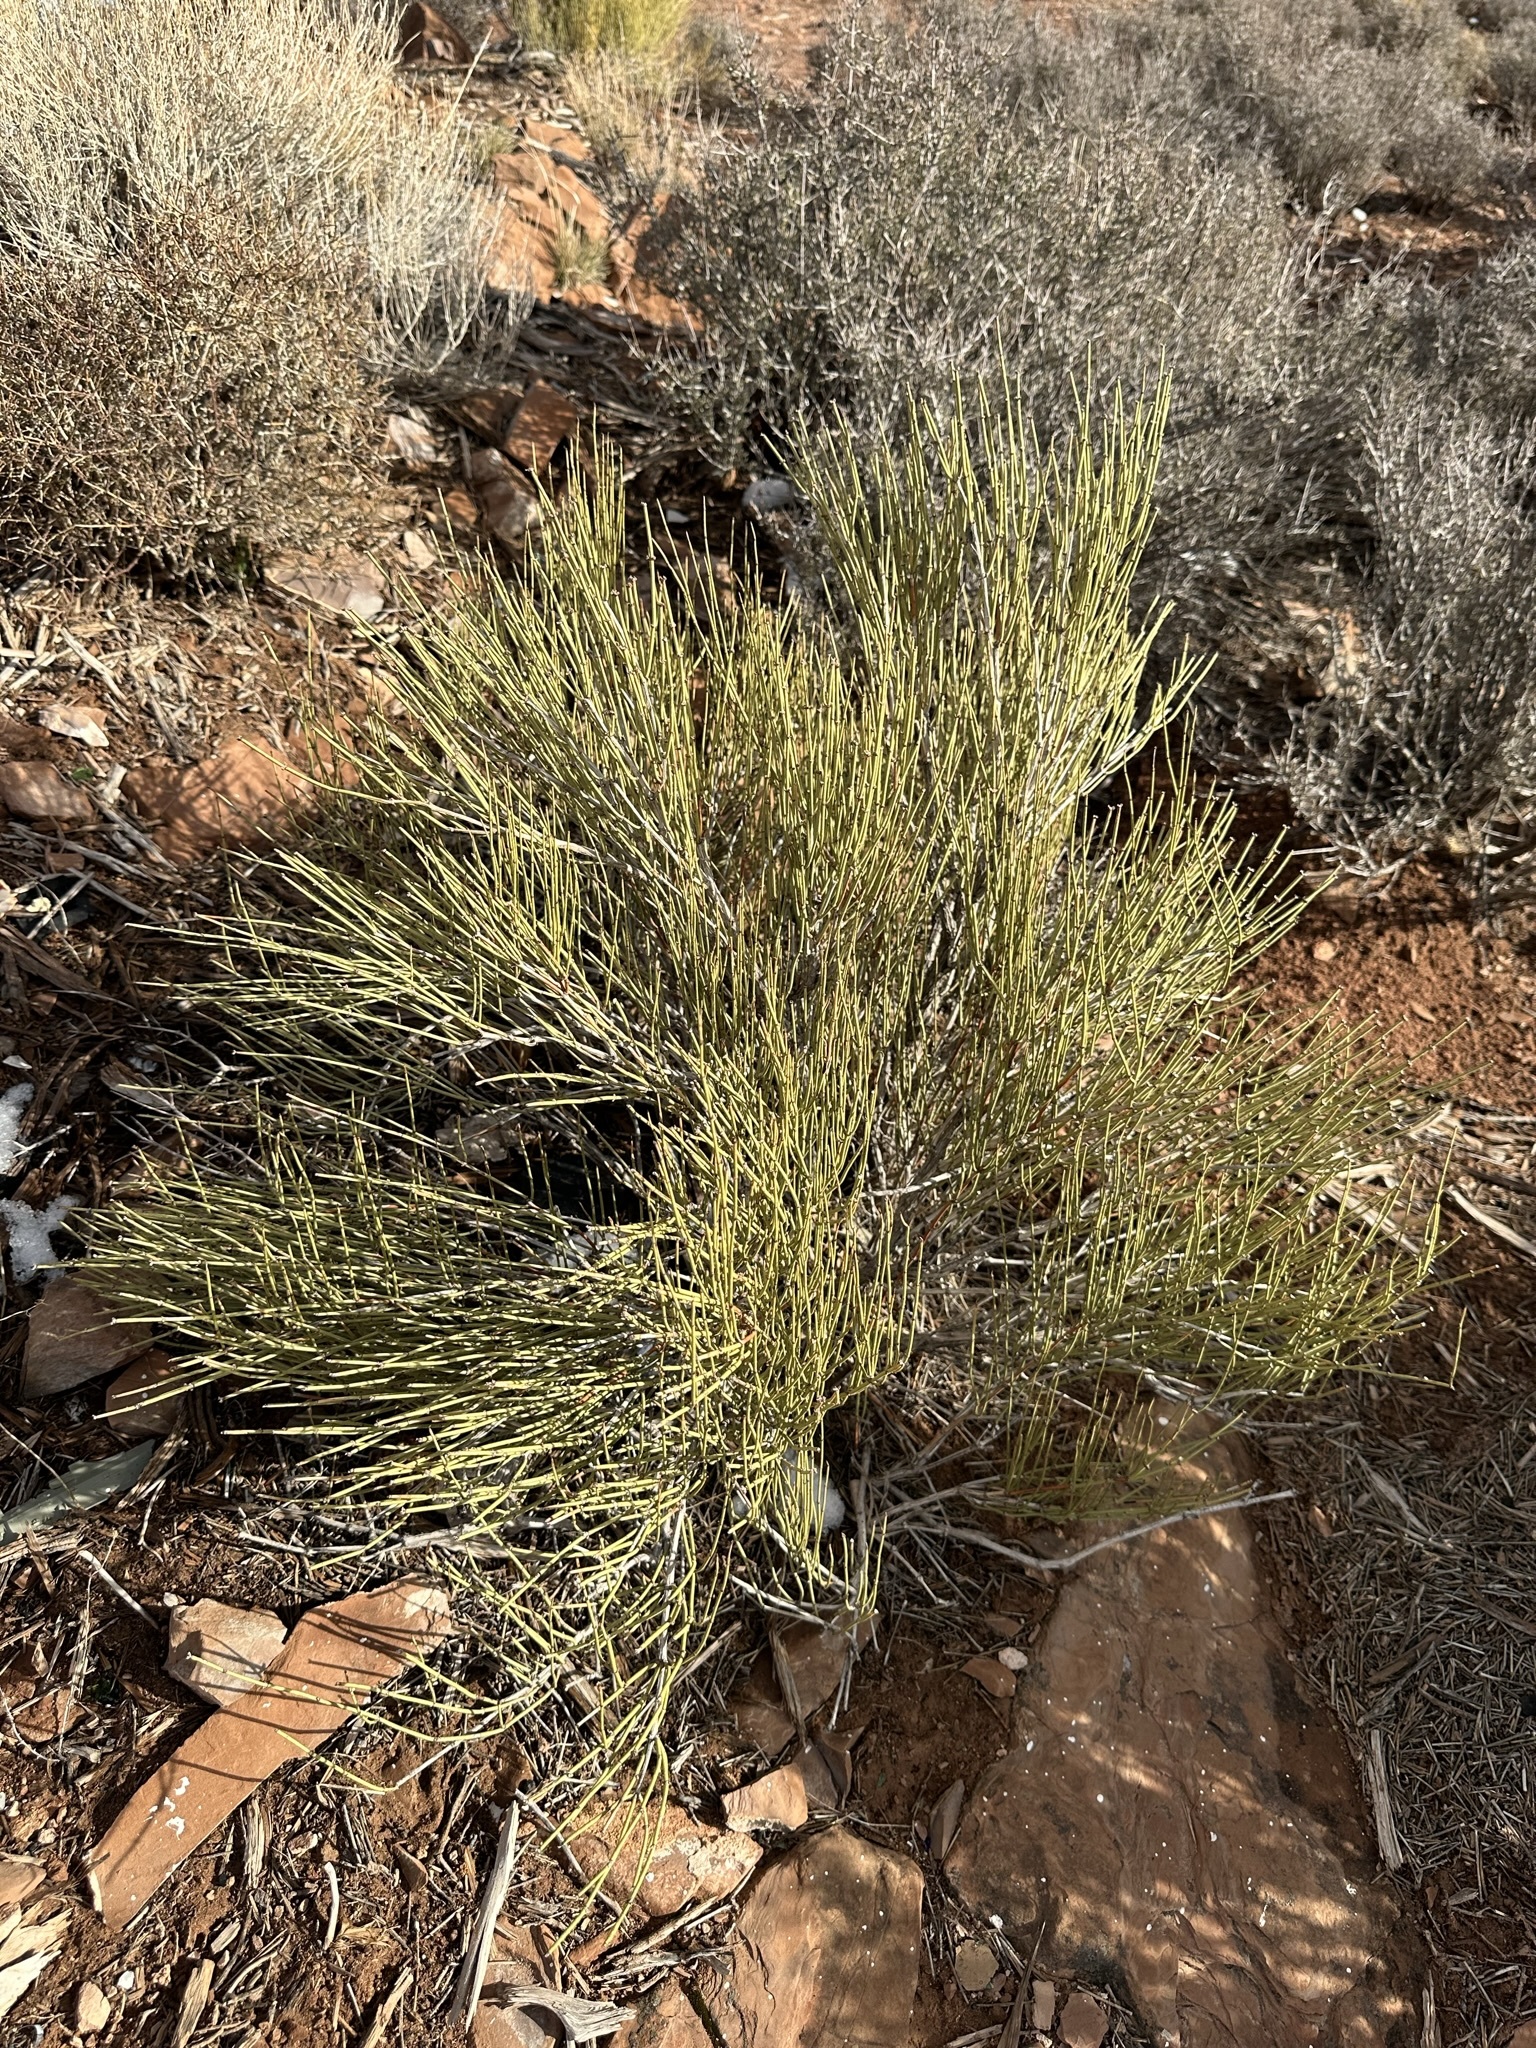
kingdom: Plantae
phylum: Tracheophyta
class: Gnetopsida
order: Ephedrales
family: Ephedraceae
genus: Ephedra
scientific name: Ephedra viridis
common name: Green ephedra
